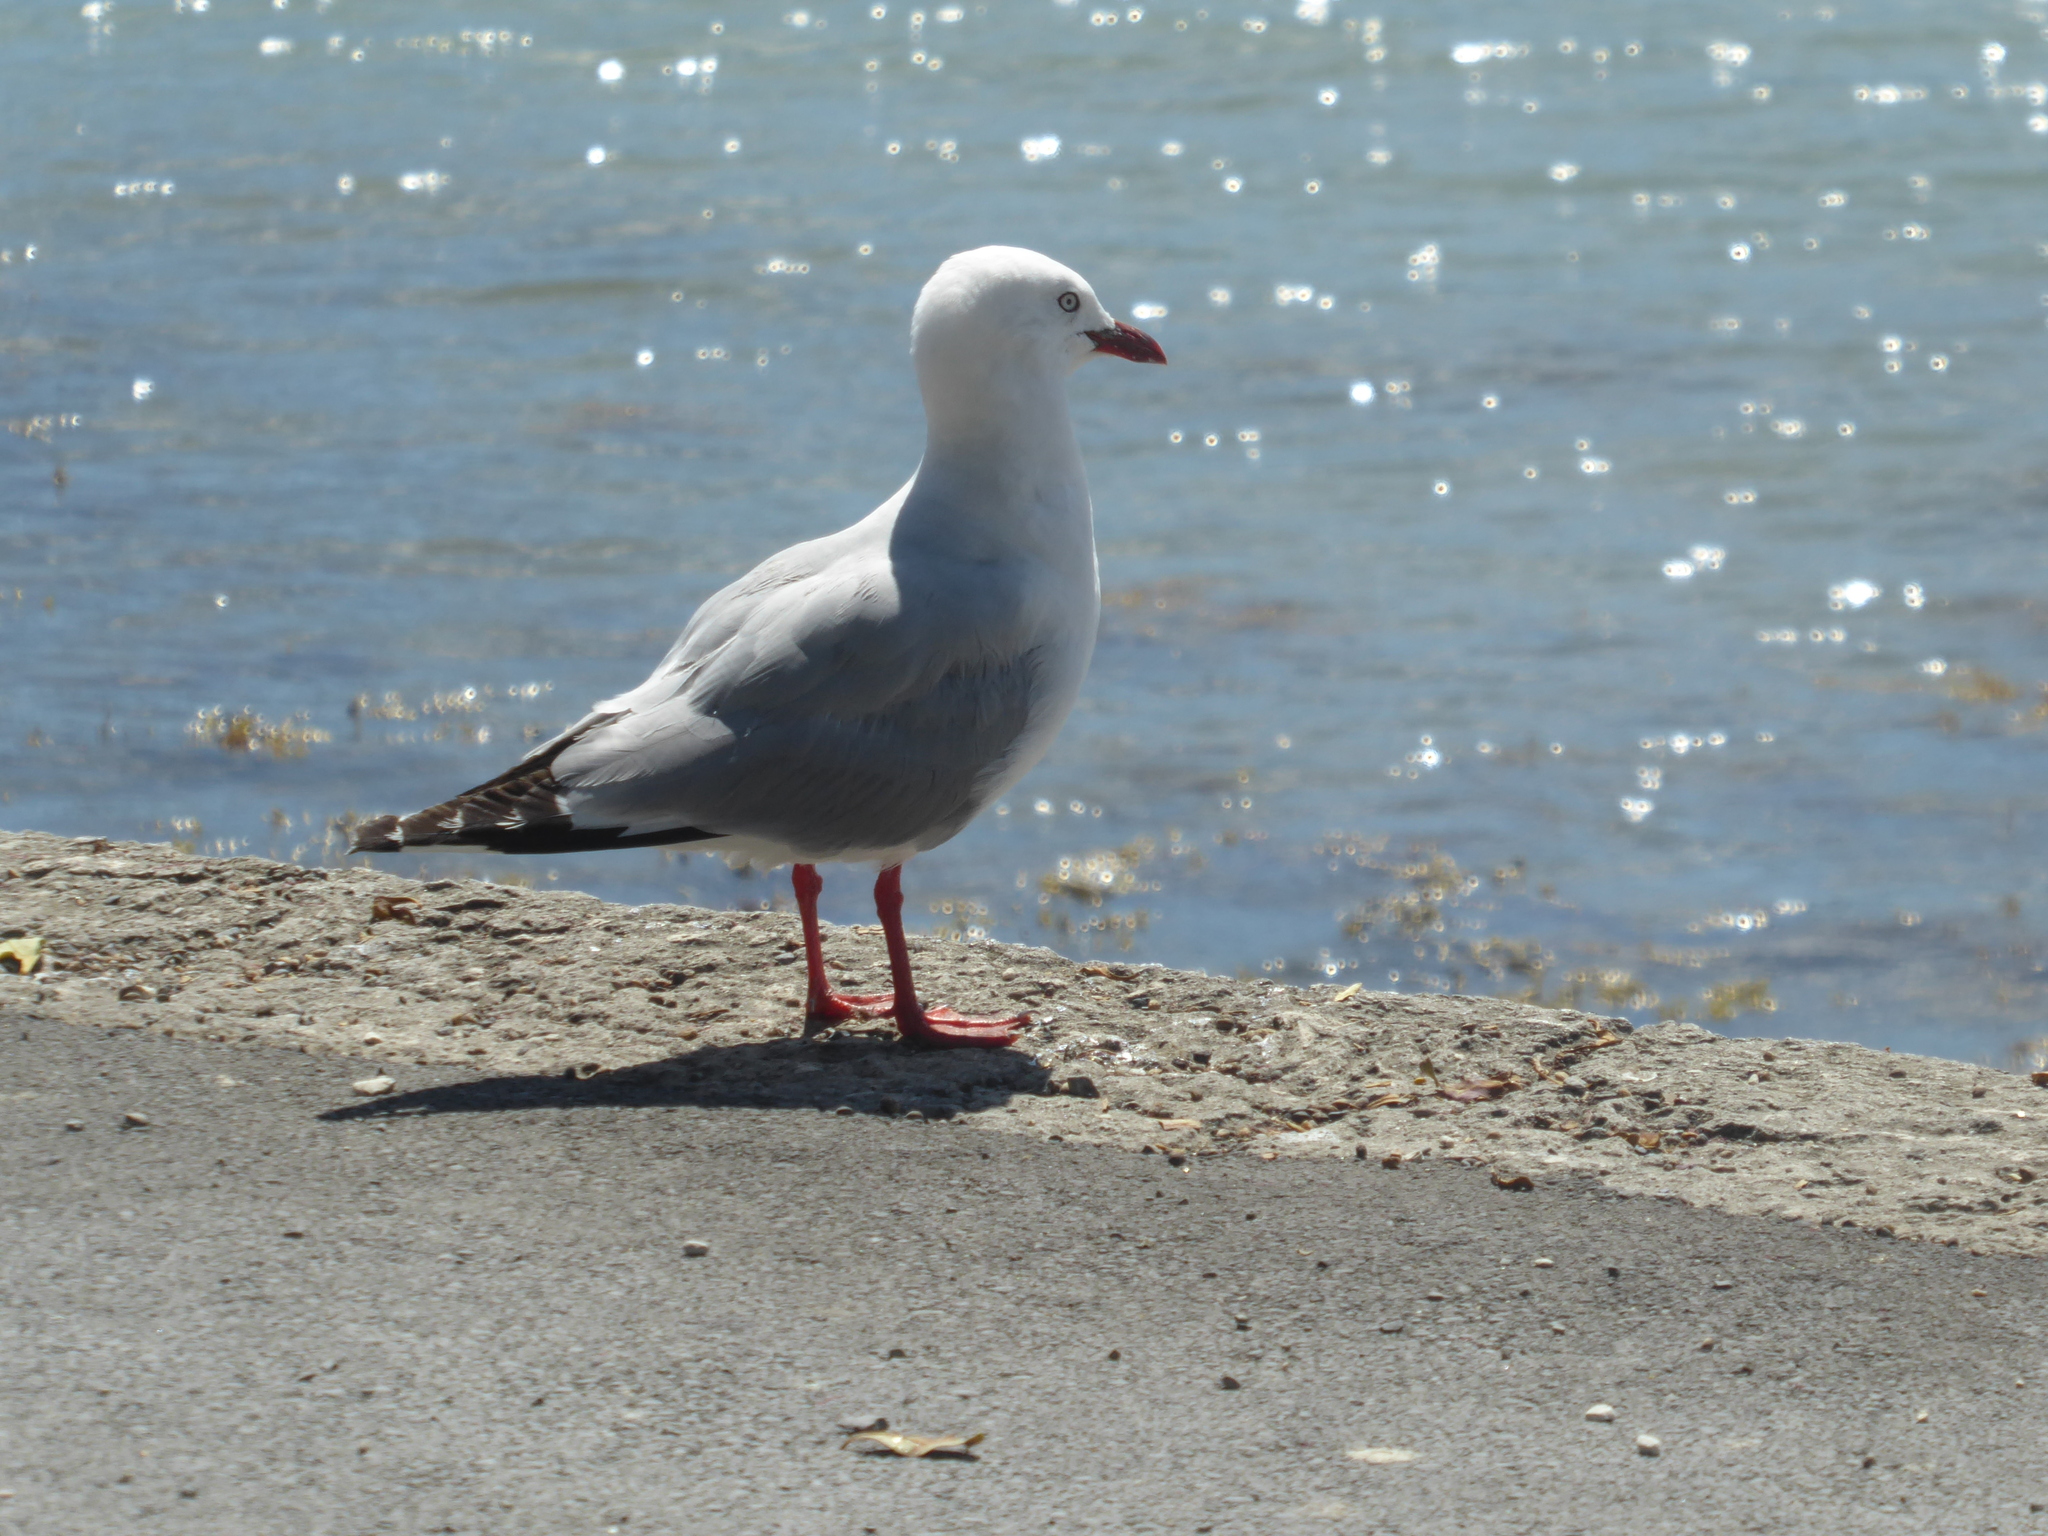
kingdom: Animalia
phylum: Chordata
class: Aves
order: Charadriiformes
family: Laridae
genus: Chroicocephalus
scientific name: Chroicocephalus novaehollandiae
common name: Silver gull
